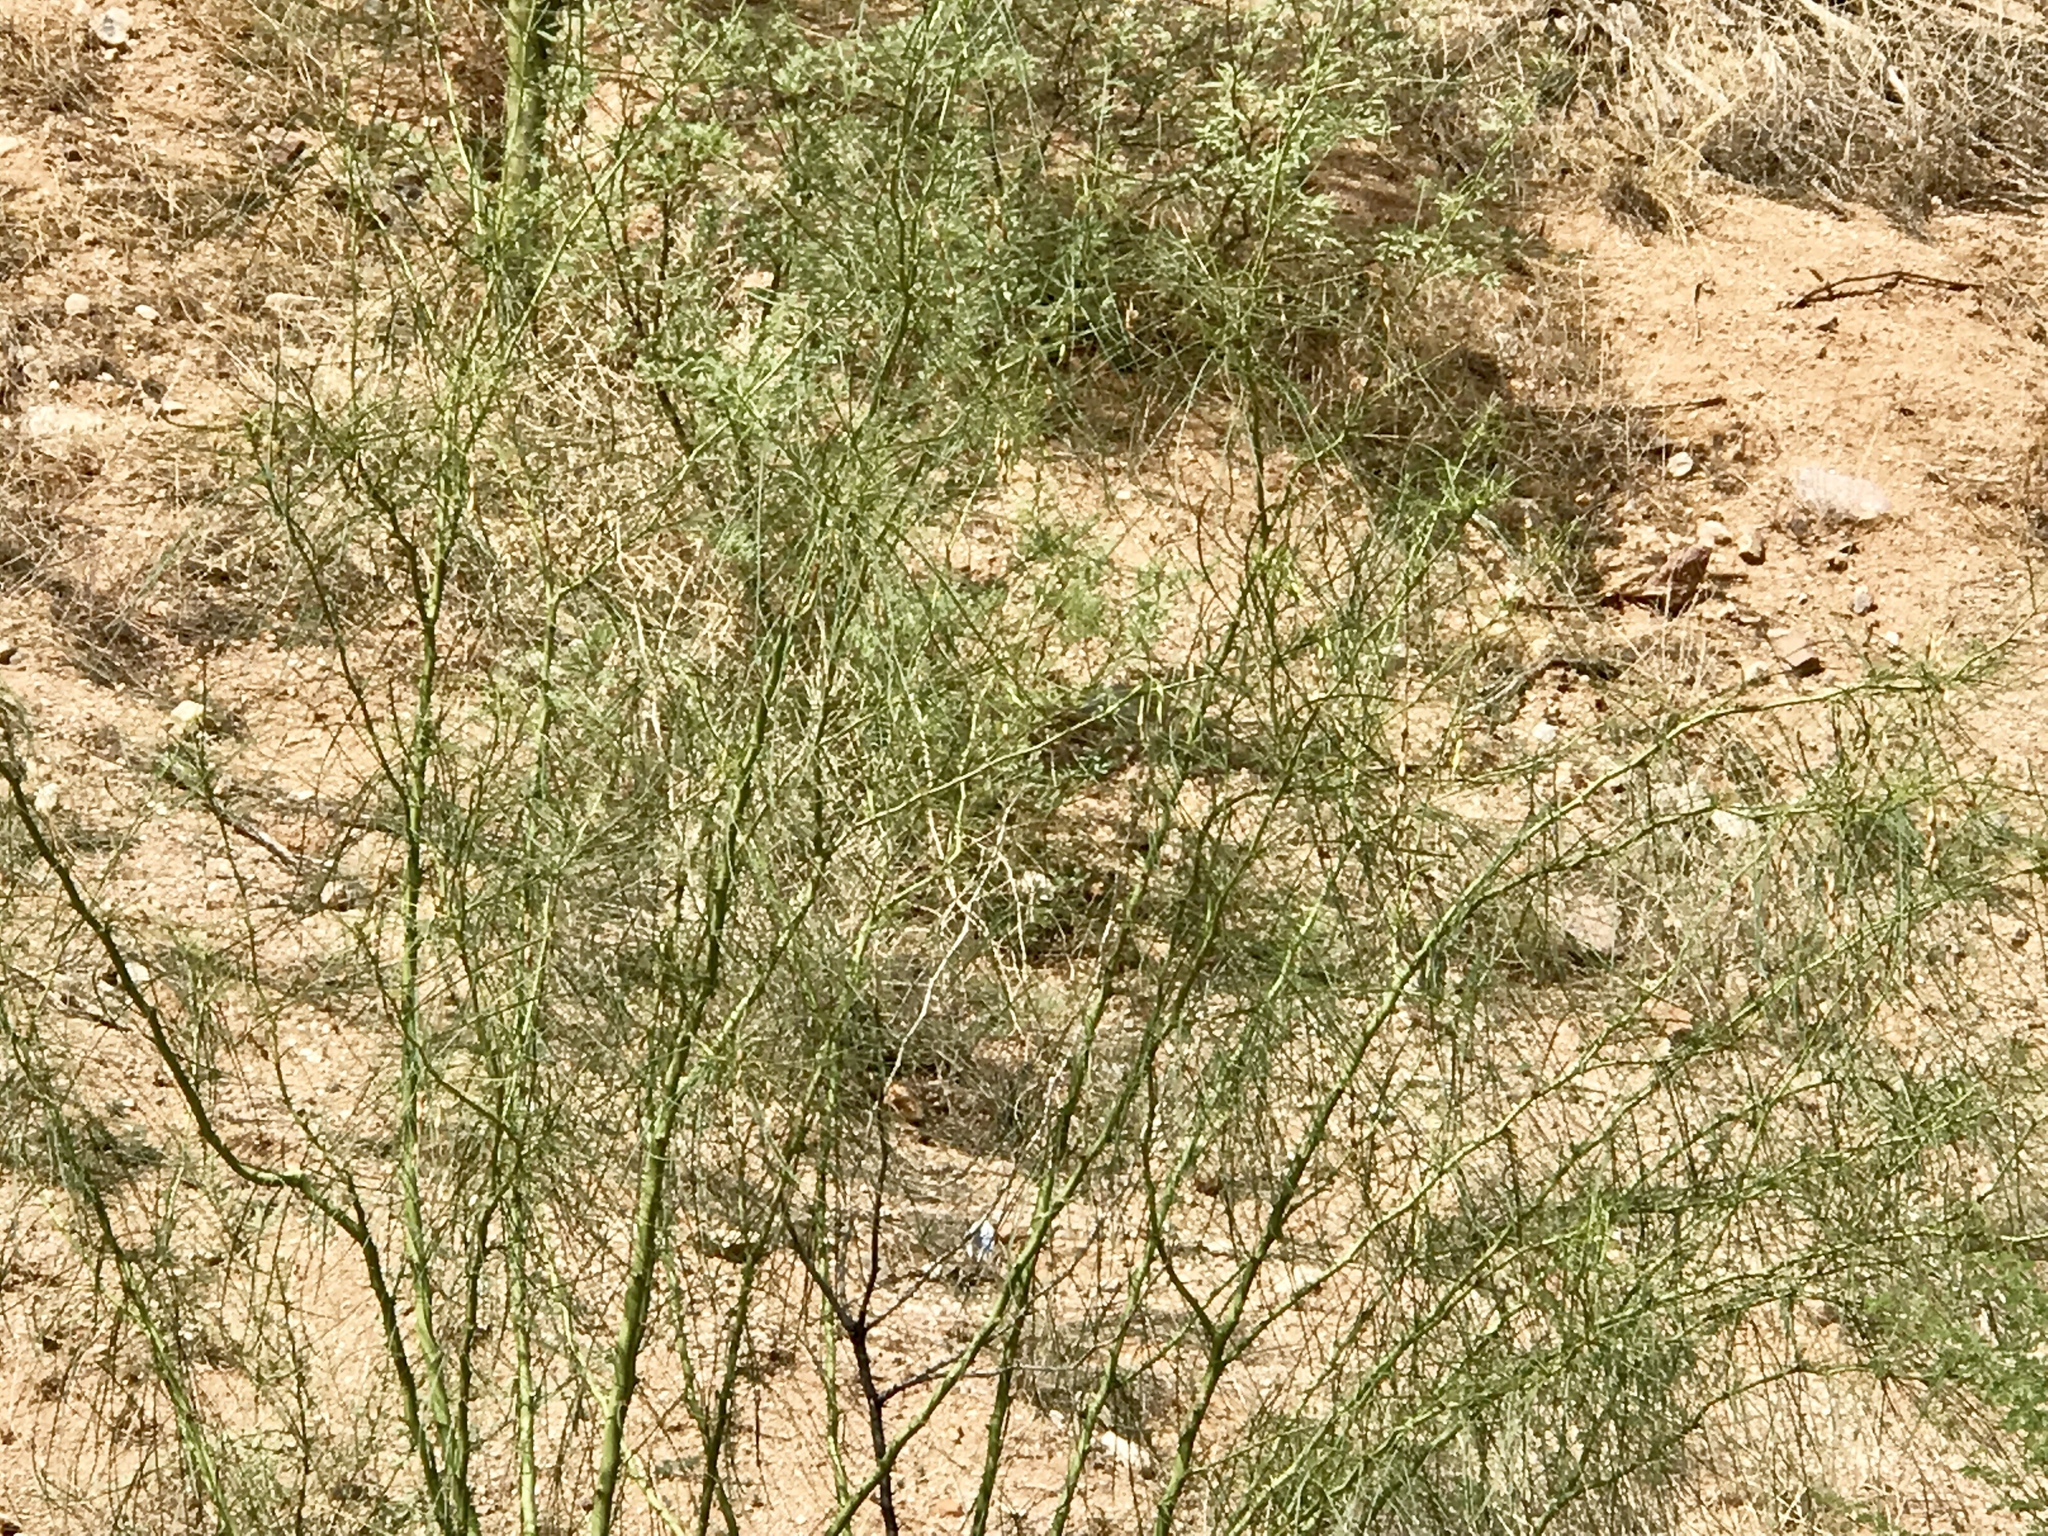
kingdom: Plantae
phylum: Tracheophyta
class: Magnoliopsida
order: Fabales
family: Fabaceae
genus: Parkinsonia
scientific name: Parkinsonia aculeata
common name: Jerusalem thorn
